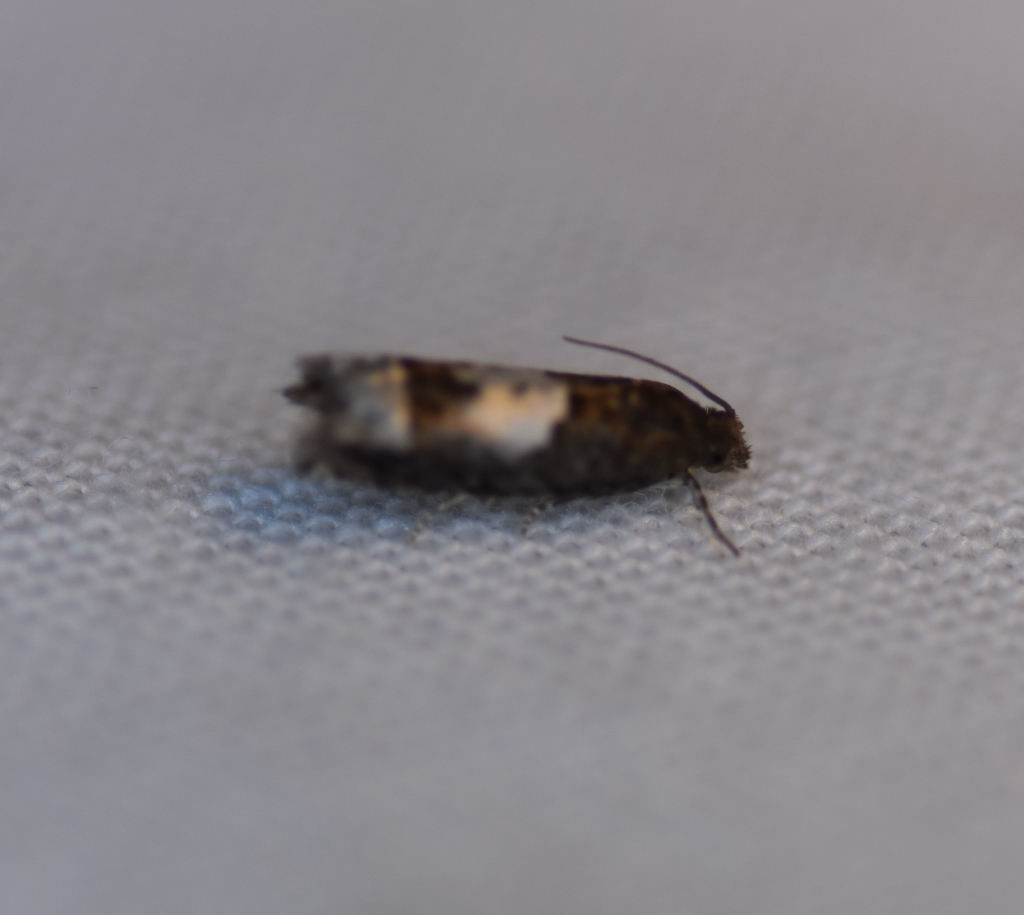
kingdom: Animalia
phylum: Arthropoda
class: Insecta
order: Lepidoptera
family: Tortricidae
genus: Eucosma
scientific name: Eucosma parmatana
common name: Aster eucosma moth
